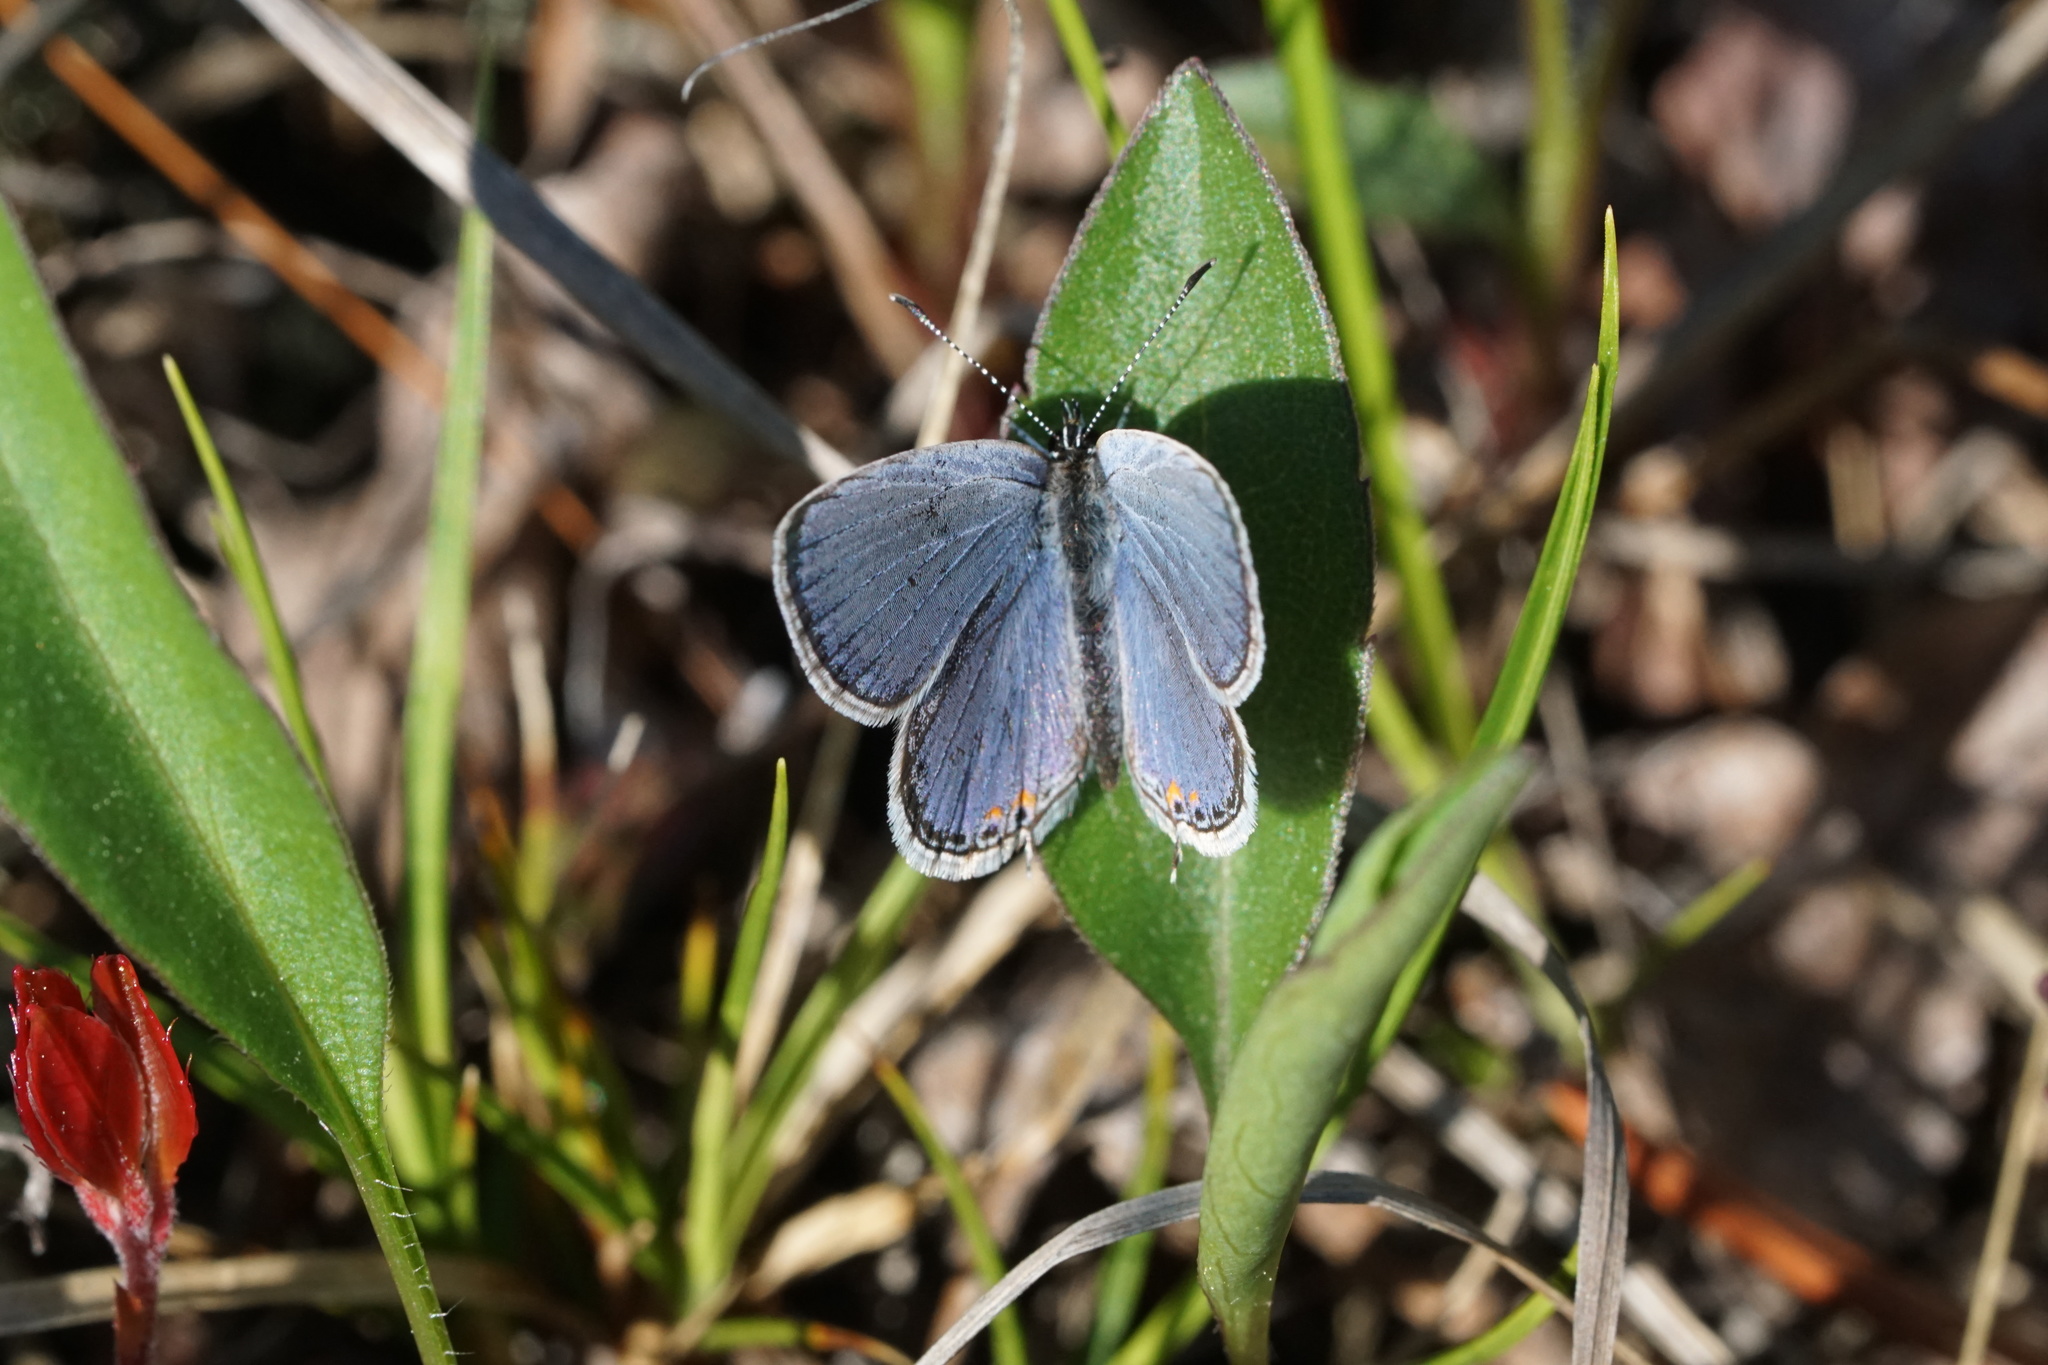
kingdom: Animalia
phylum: Arthropoda
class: Insecta
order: Lepidoptera
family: Lycaenidae
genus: Elkalyce
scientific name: Elkalyce comyntas
